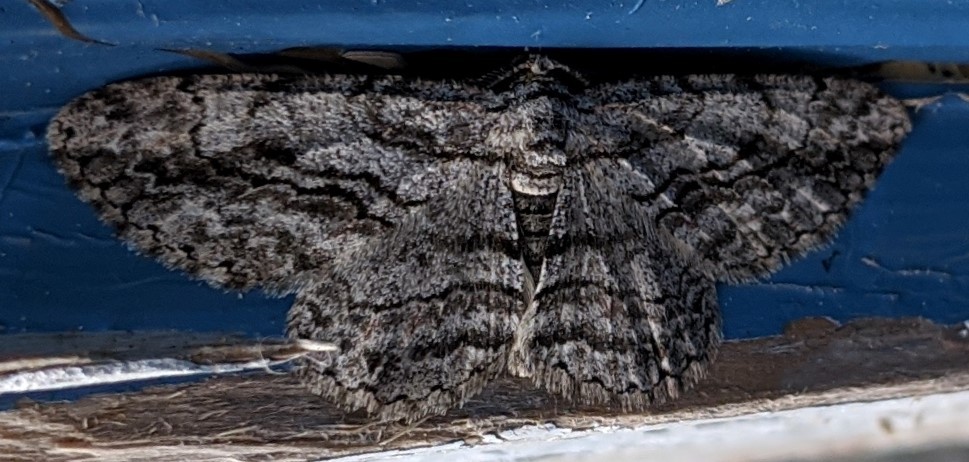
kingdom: Animalia
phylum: Arthropoda
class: Insecta
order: Lepidoptera
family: Geometridae
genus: Anavitrinella
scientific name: Anavitrinella pampinaria
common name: Common gray
